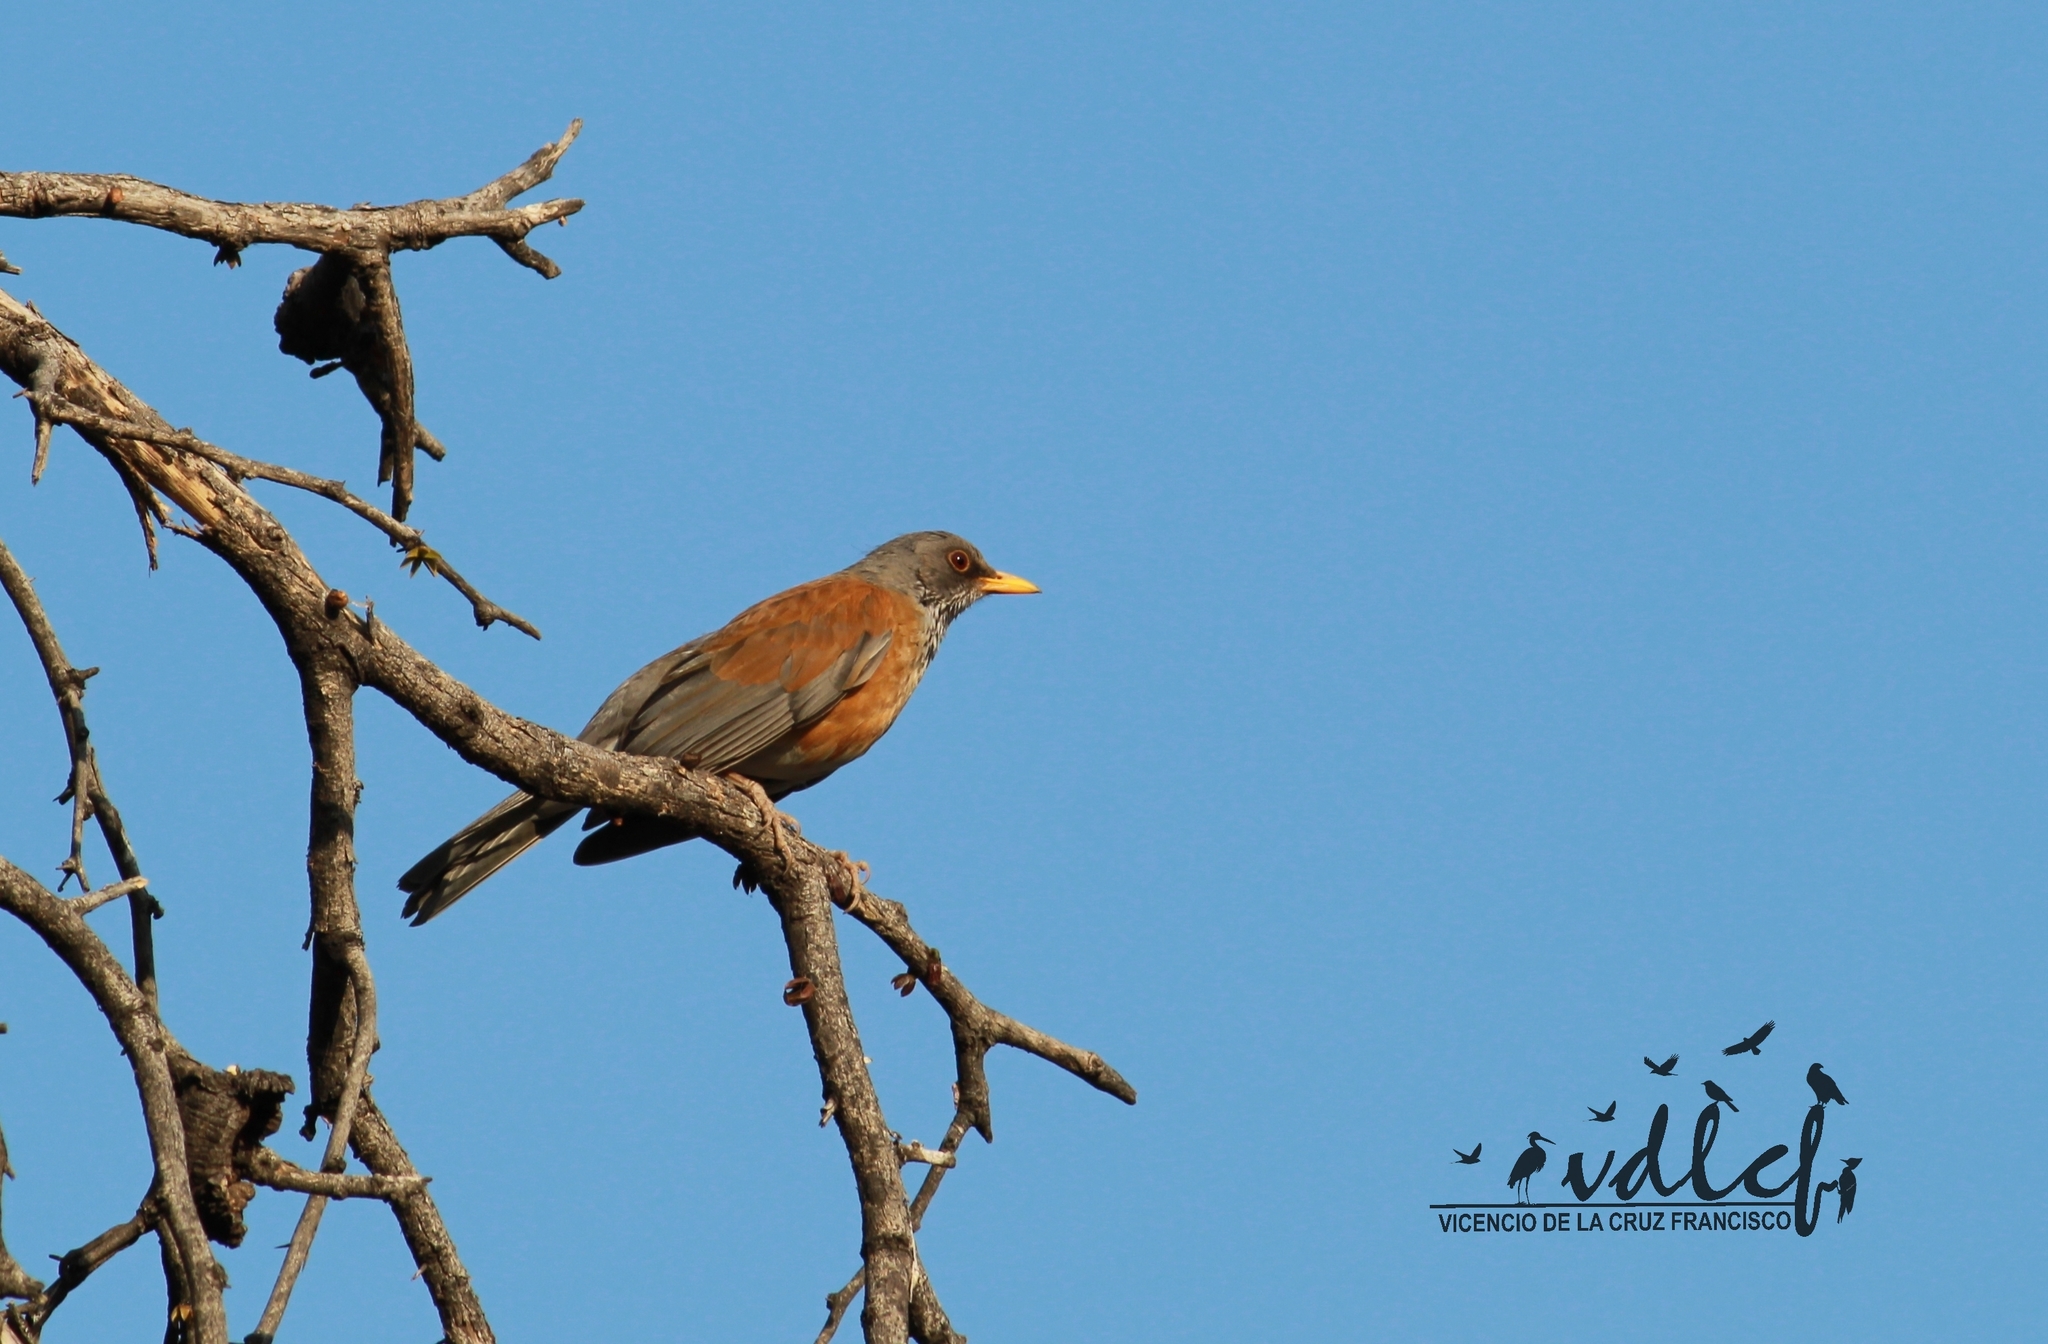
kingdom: Animalia
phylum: Chordata
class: Aves
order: Passeriformes
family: Turdidae
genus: Turdus
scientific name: Turdus rufopalliatus
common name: Rufous-backed robin
